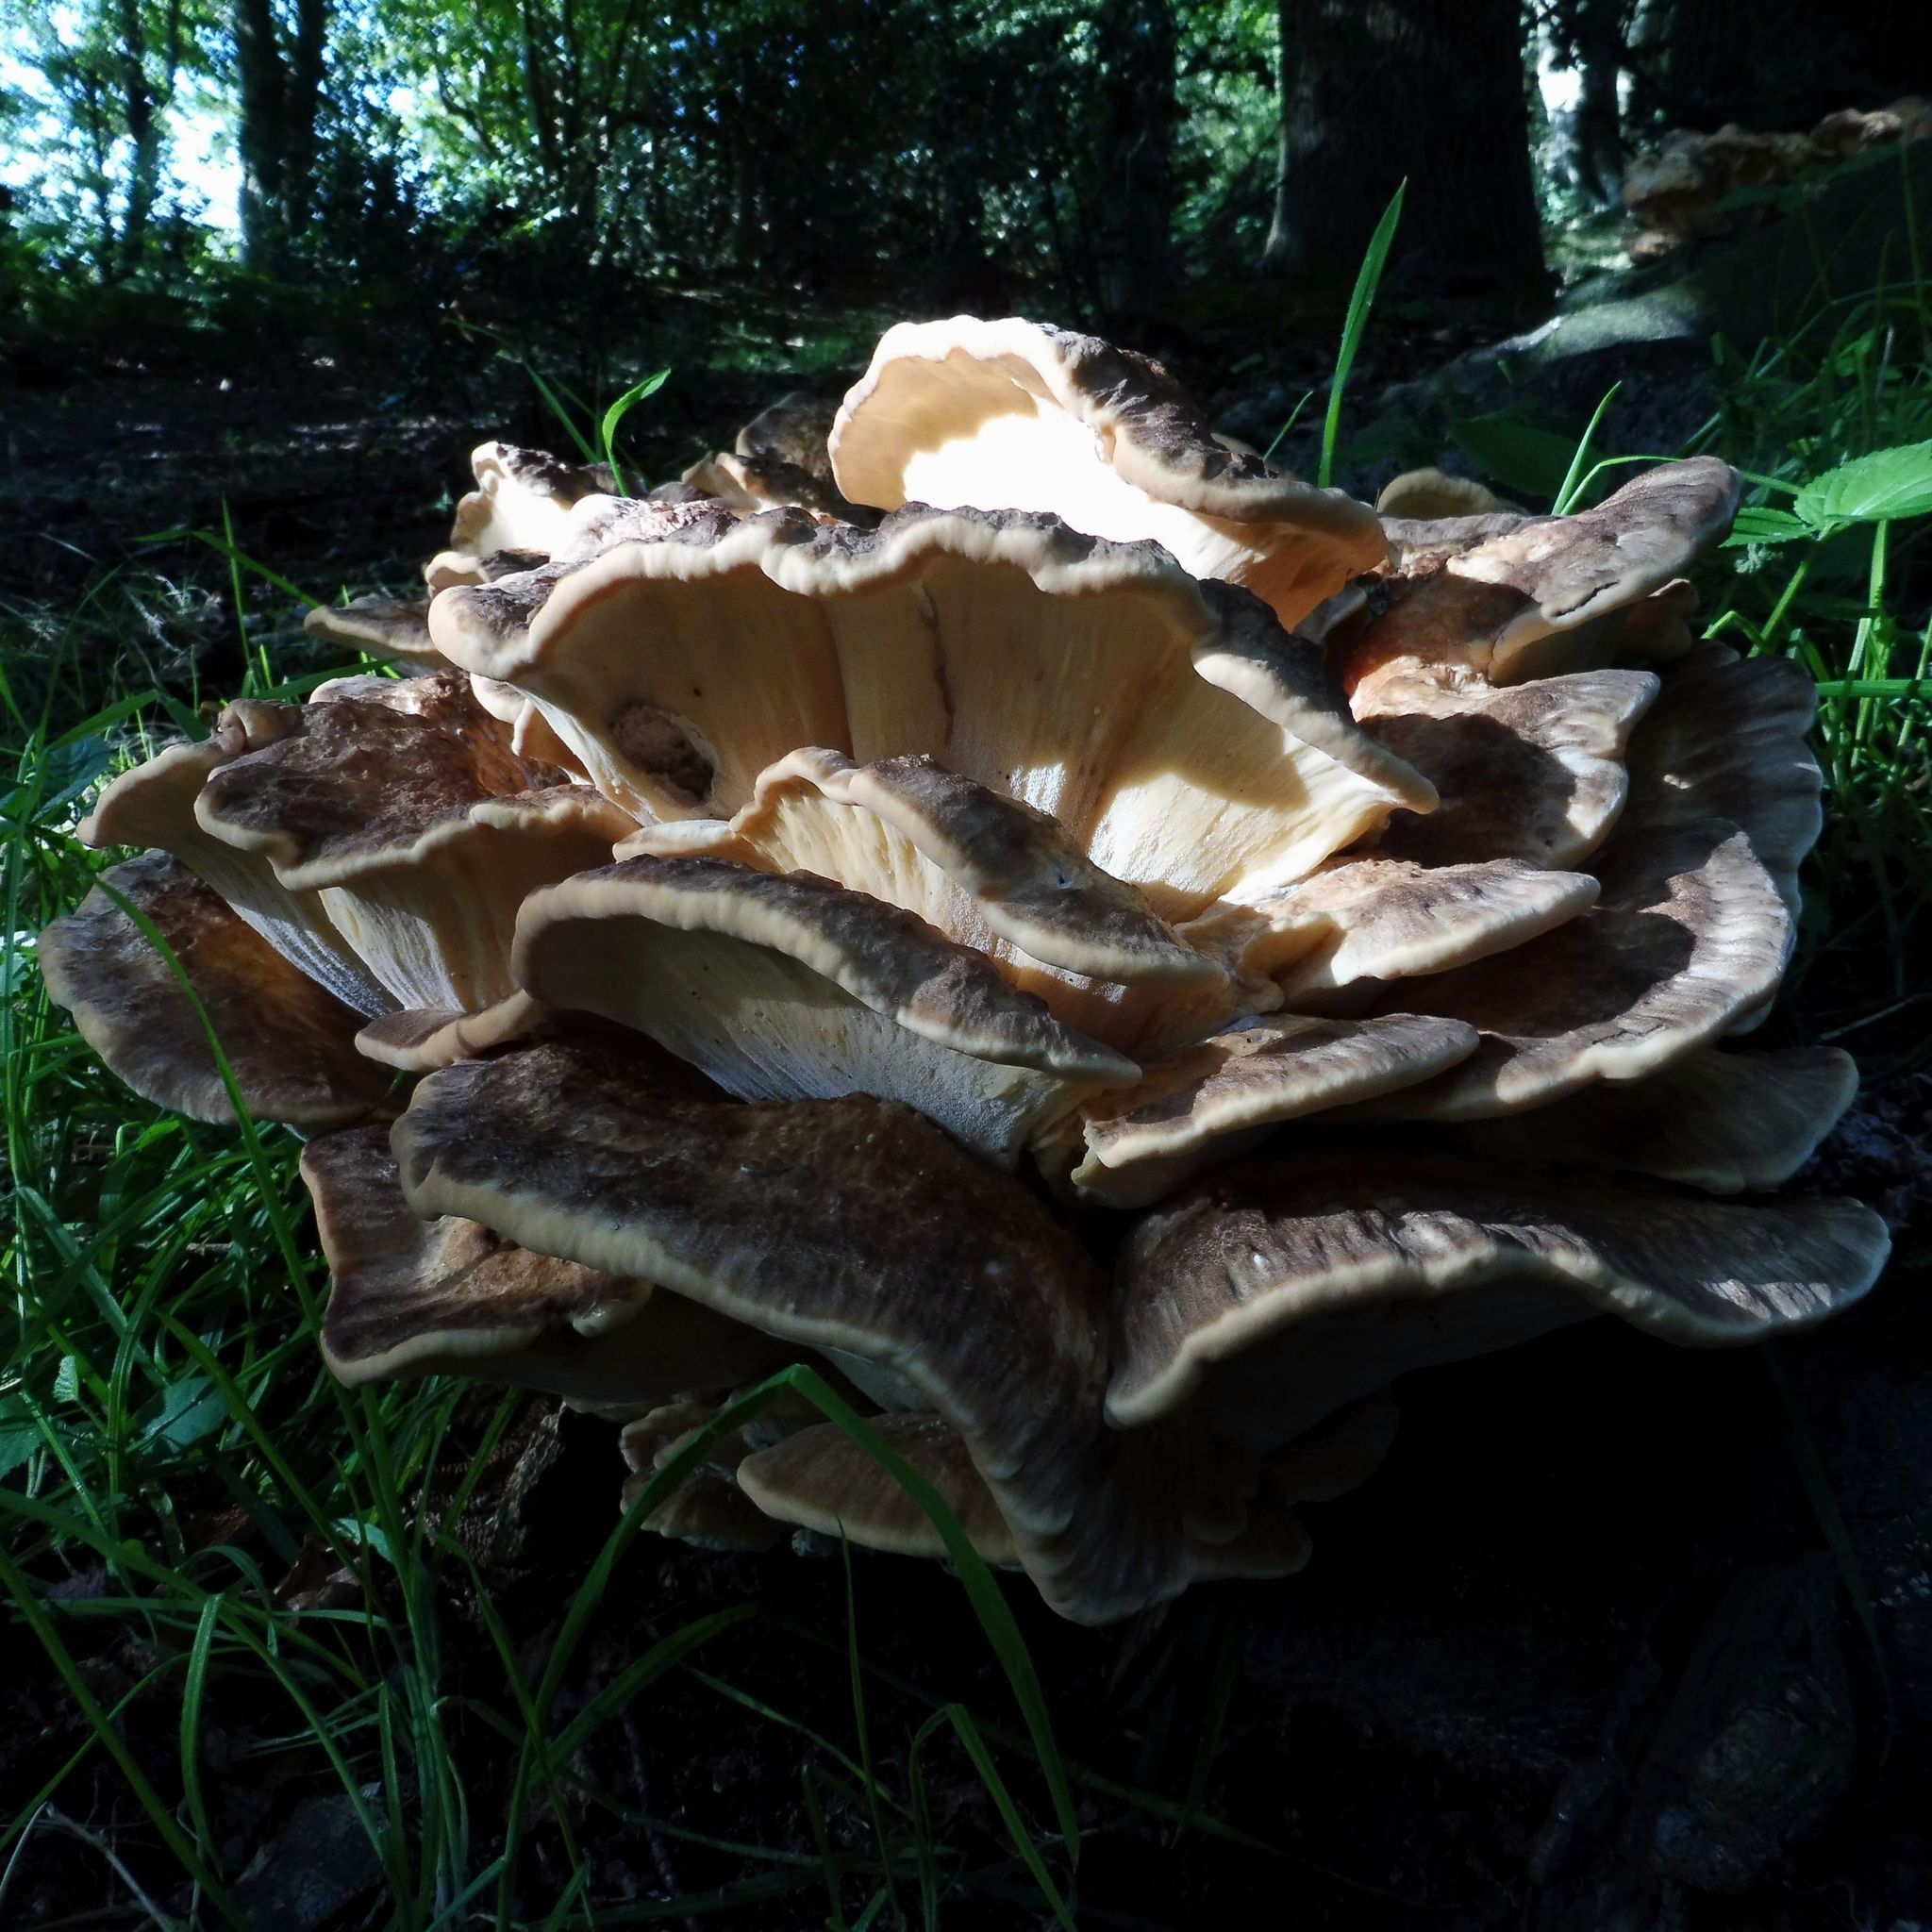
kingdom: Fungi
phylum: Basidiomycota
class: Agaricomycetes
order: Polyporales
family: Meripilaceae
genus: Meripilus
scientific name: Meripilus giganteus
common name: Giant polypore
